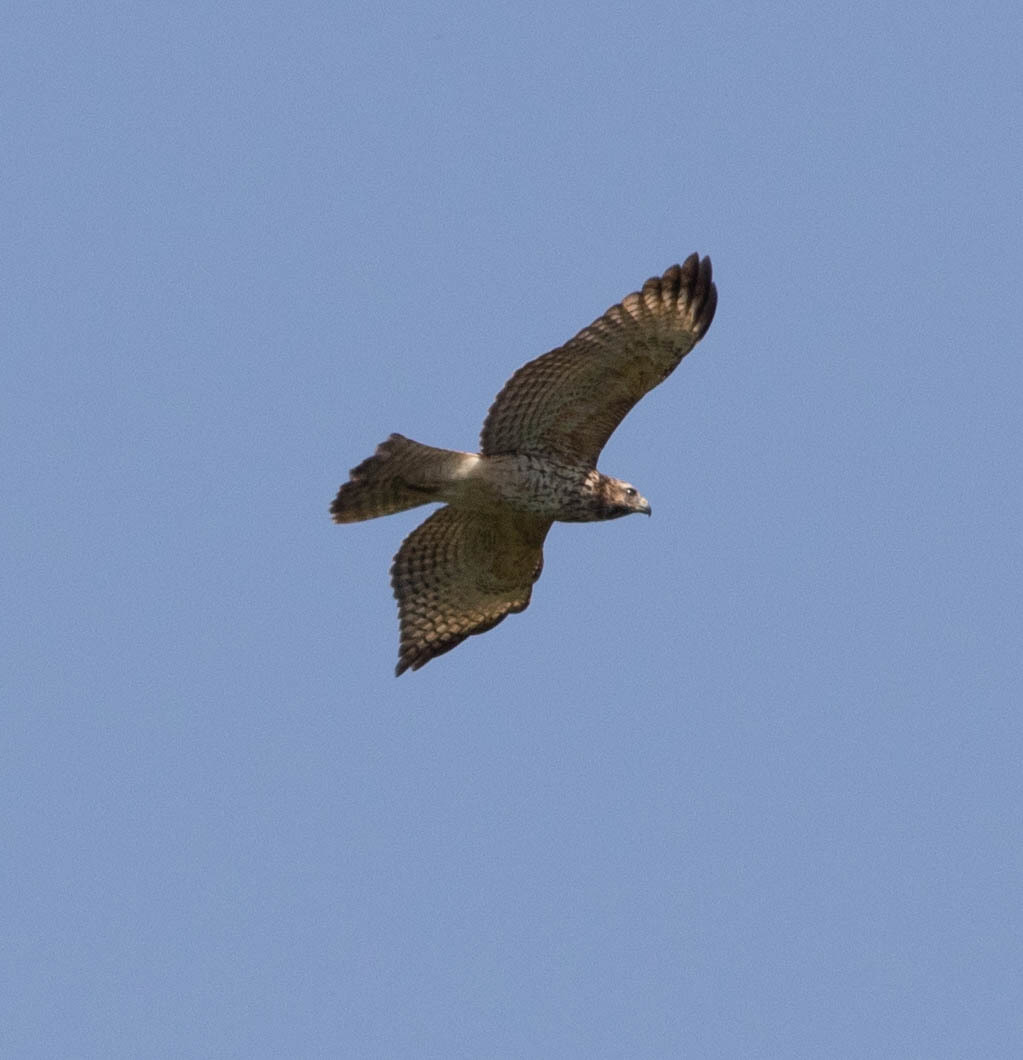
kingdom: Animalia
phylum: Chordata
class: Aves
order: Accipitriformes
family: Accipitridae
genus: Buteo
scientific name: Buteo platypterus
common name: Broad-winged hawk
